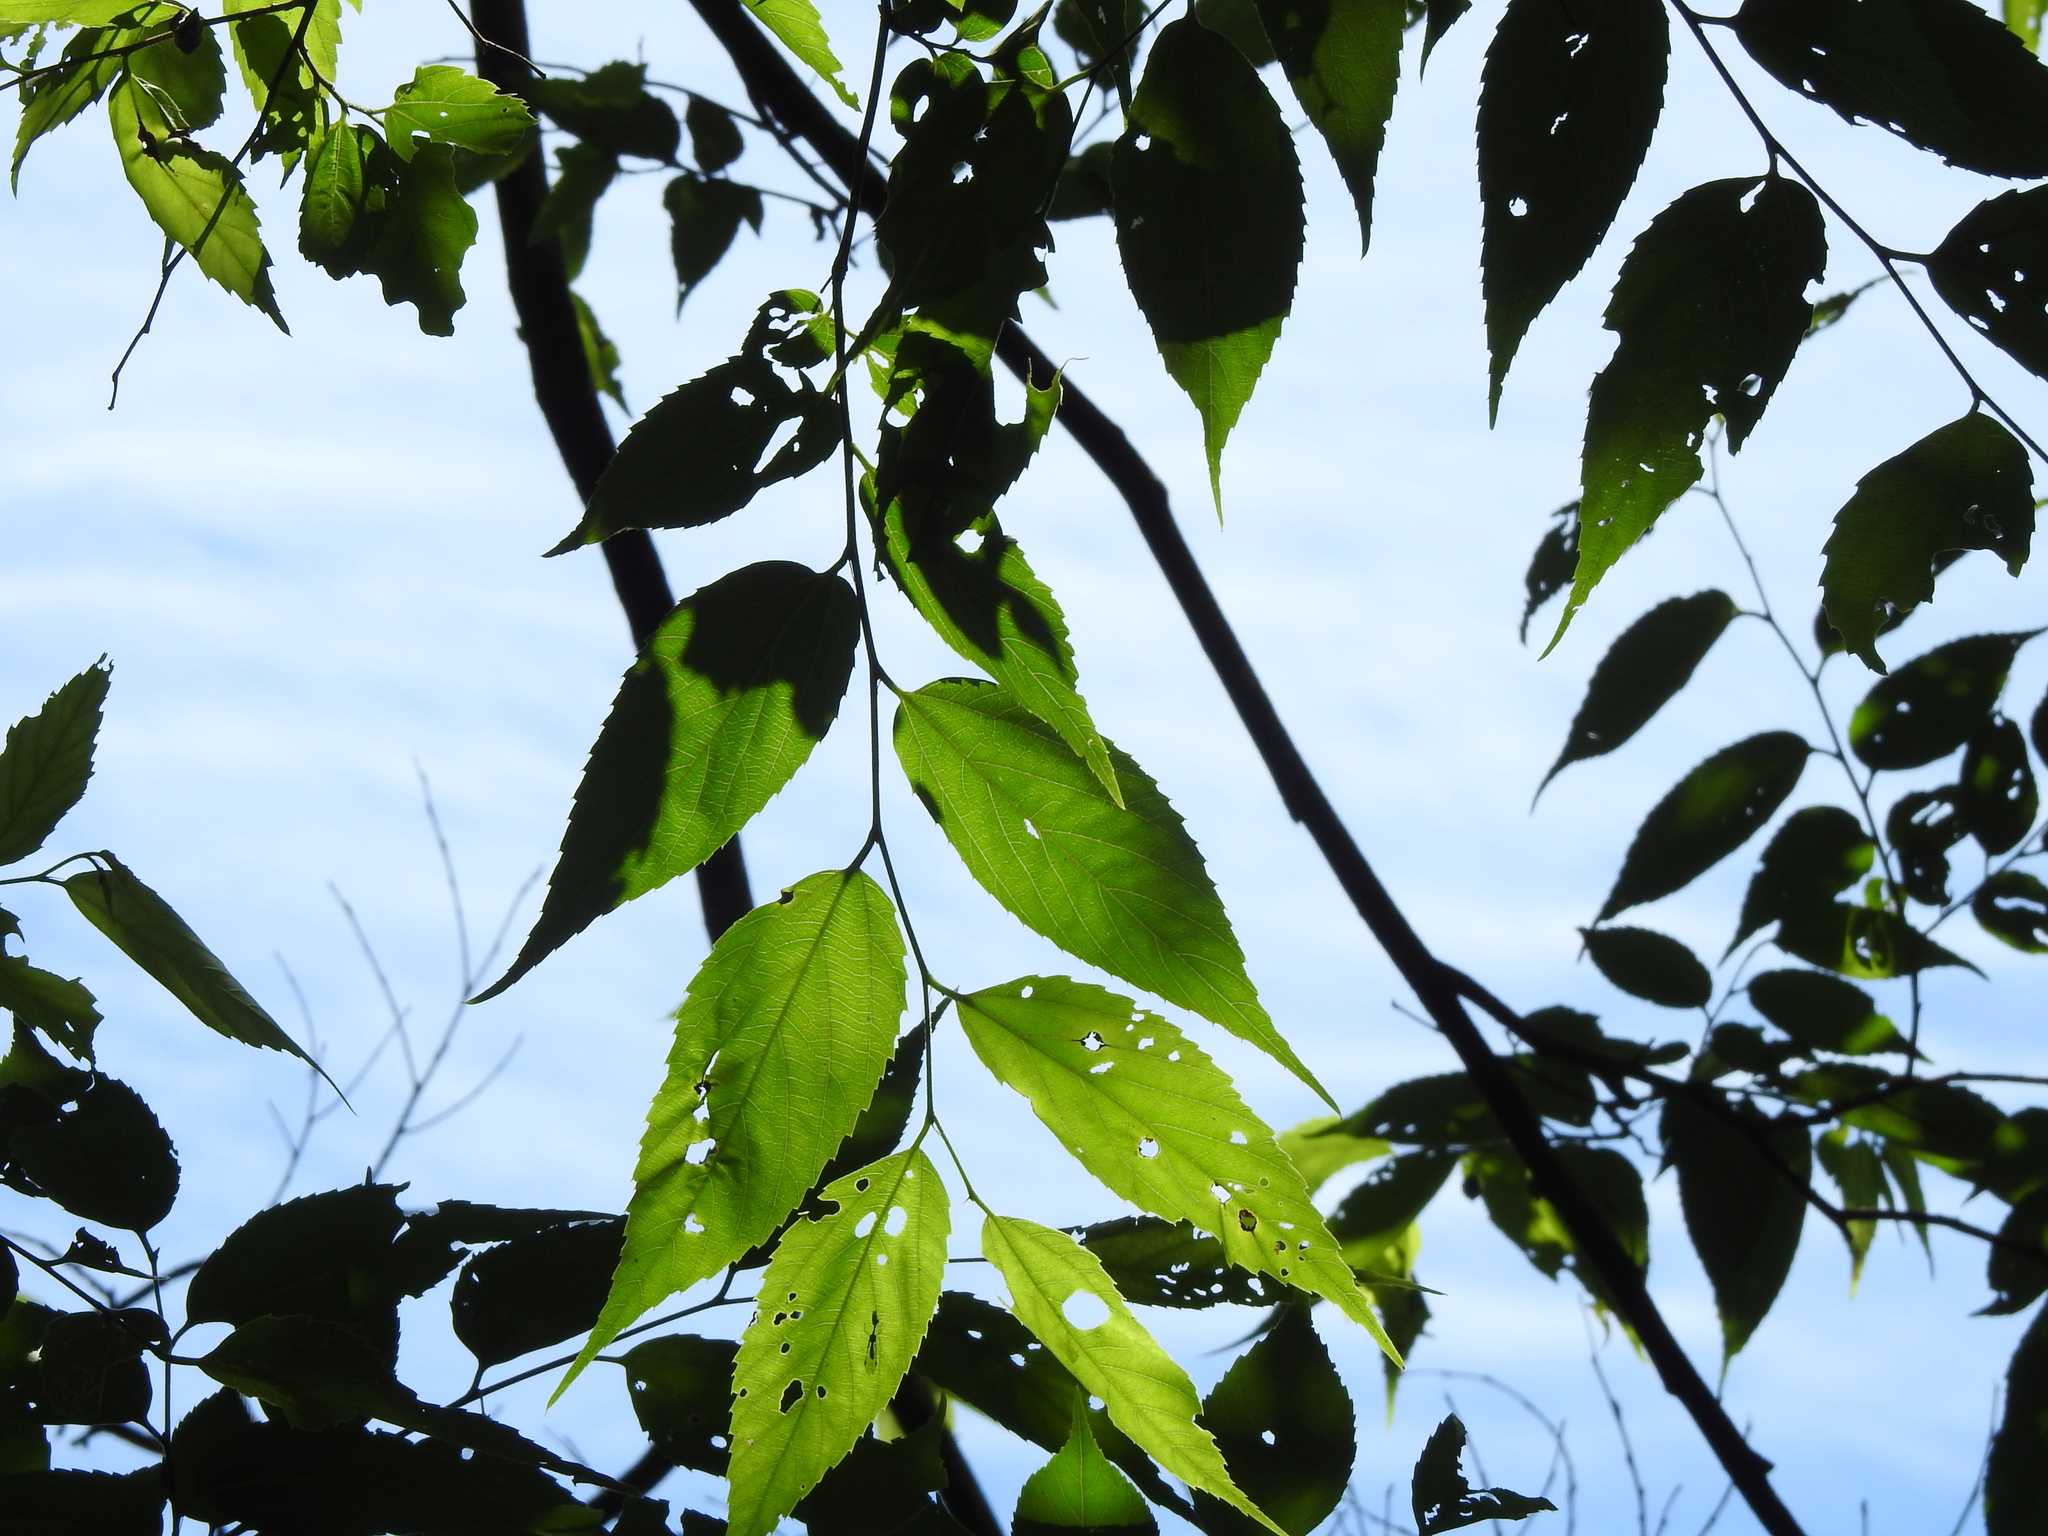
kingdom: Plantae
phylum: Tracheophyta
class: Magnoliopsida
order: Rosales
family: Cannabaceae
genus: Aphananthe
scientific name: Aphananthe aspera
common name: Mukutree
